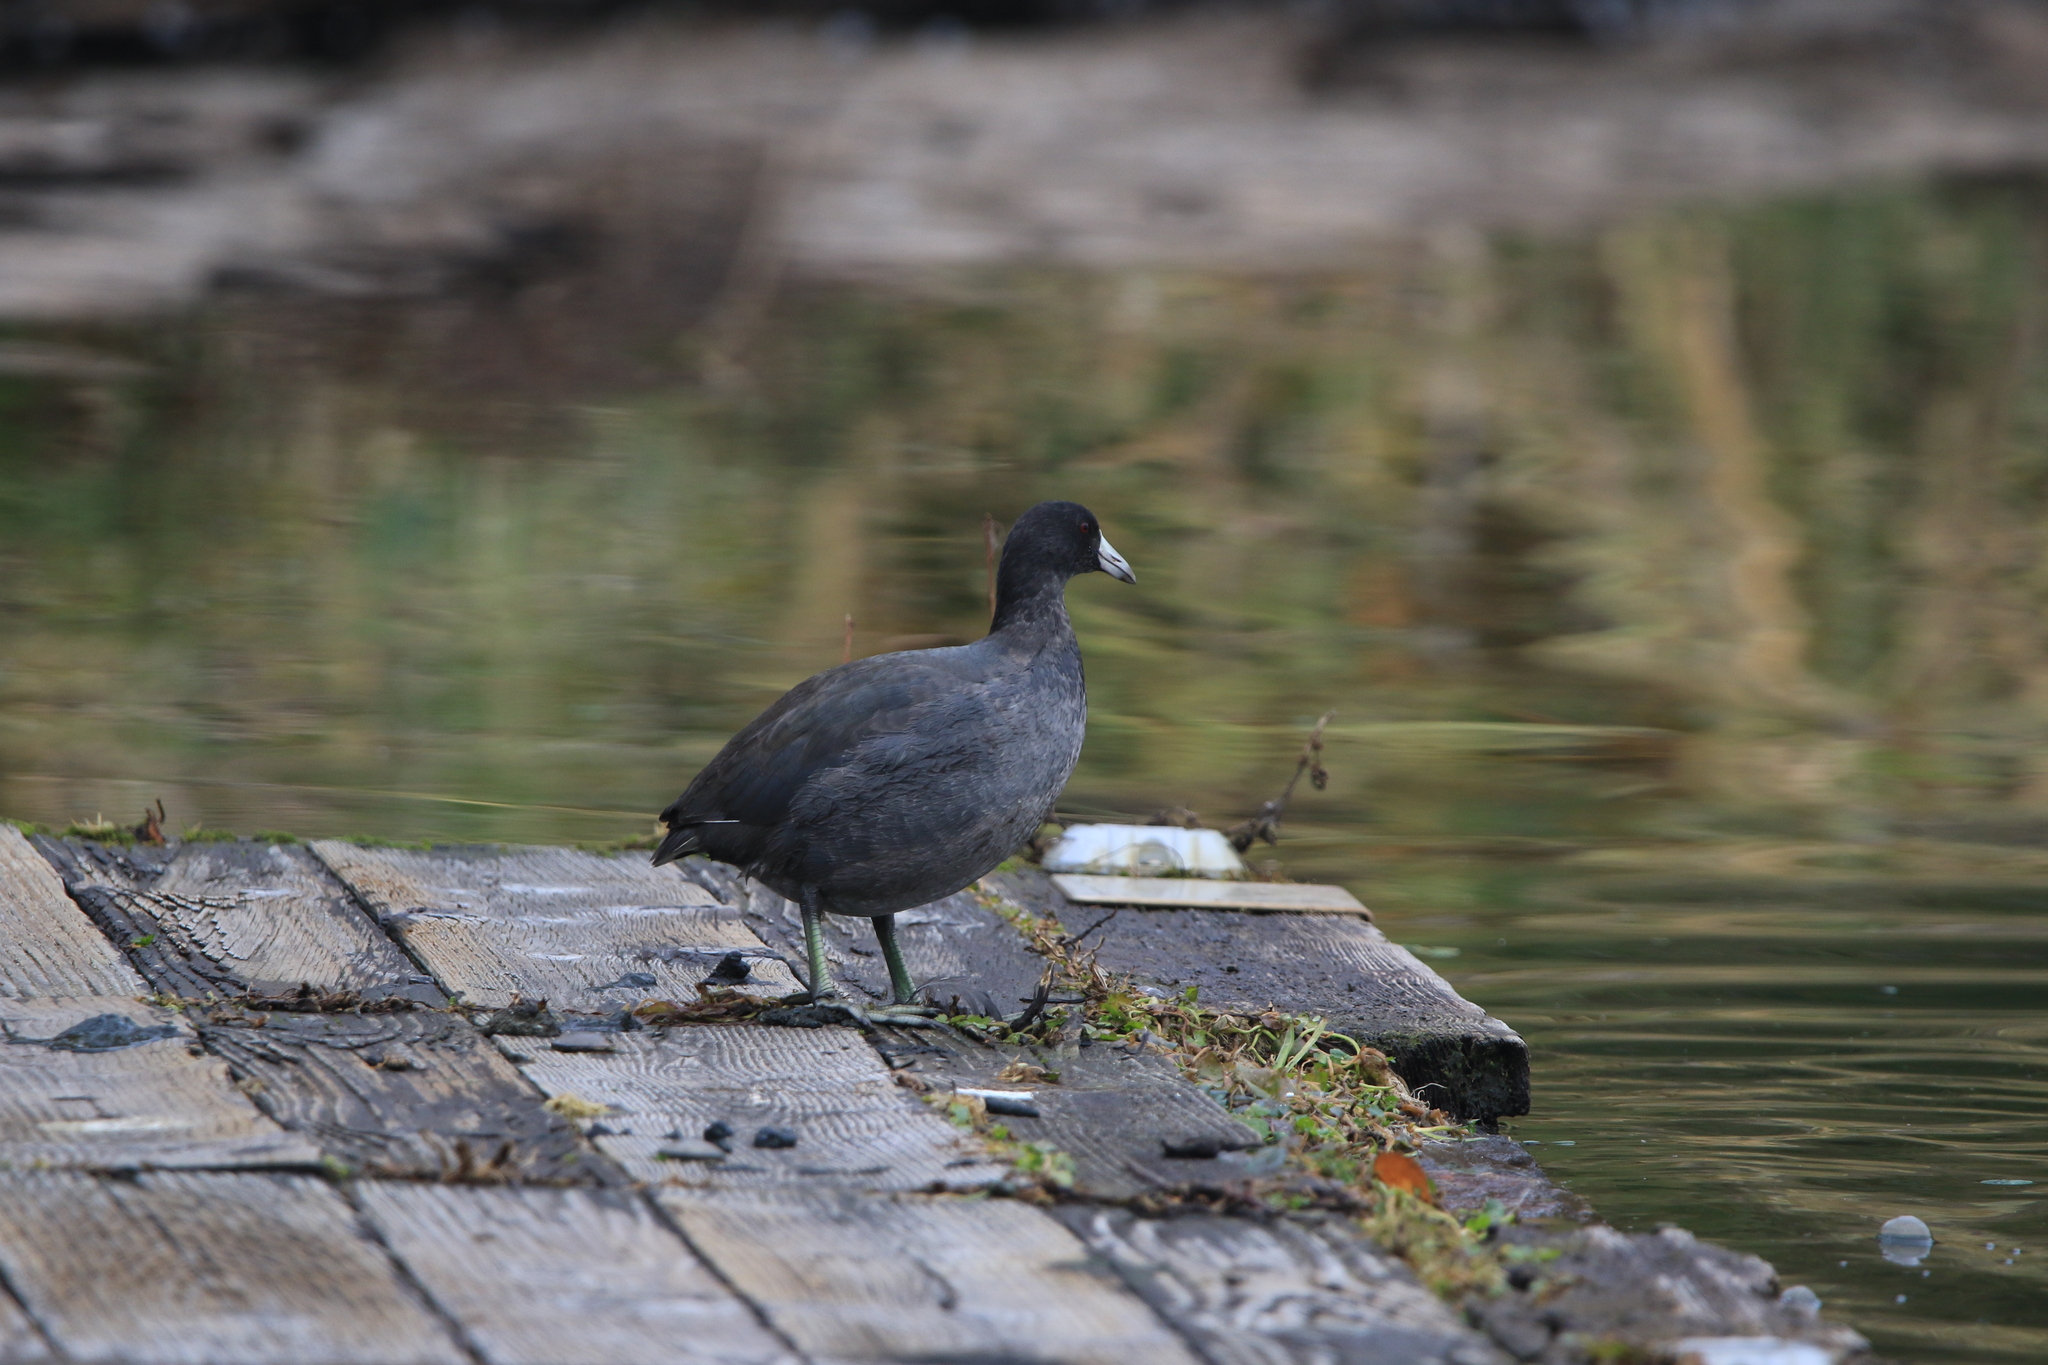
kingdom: Animalia
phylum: Chordata
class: Aves
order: Gruiformes
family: Rallidae
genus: Fulica
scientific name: Fulica americana
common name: American coot
